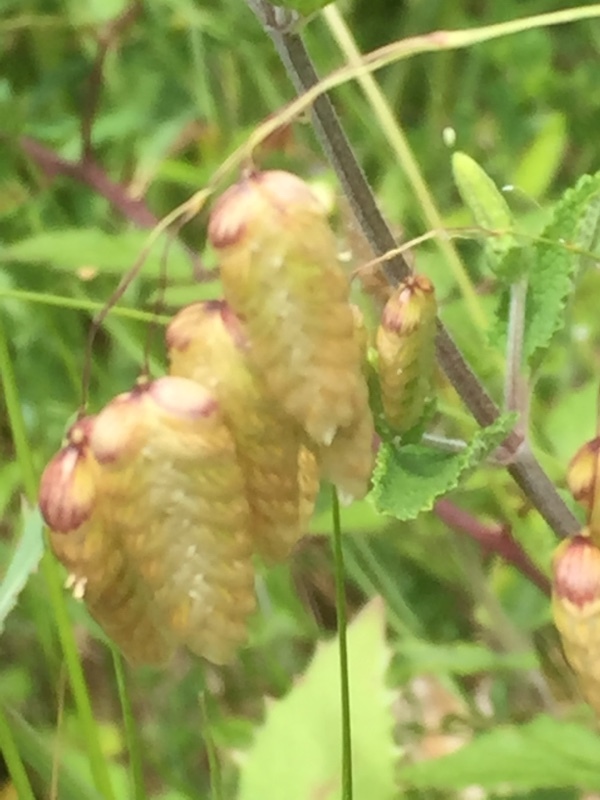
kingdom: Plantae
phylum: Tracheophyta
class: Liliopsida
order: Poales
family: Poaceae
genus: Briza
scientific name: Briza maxima
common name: Big quakinggrass
